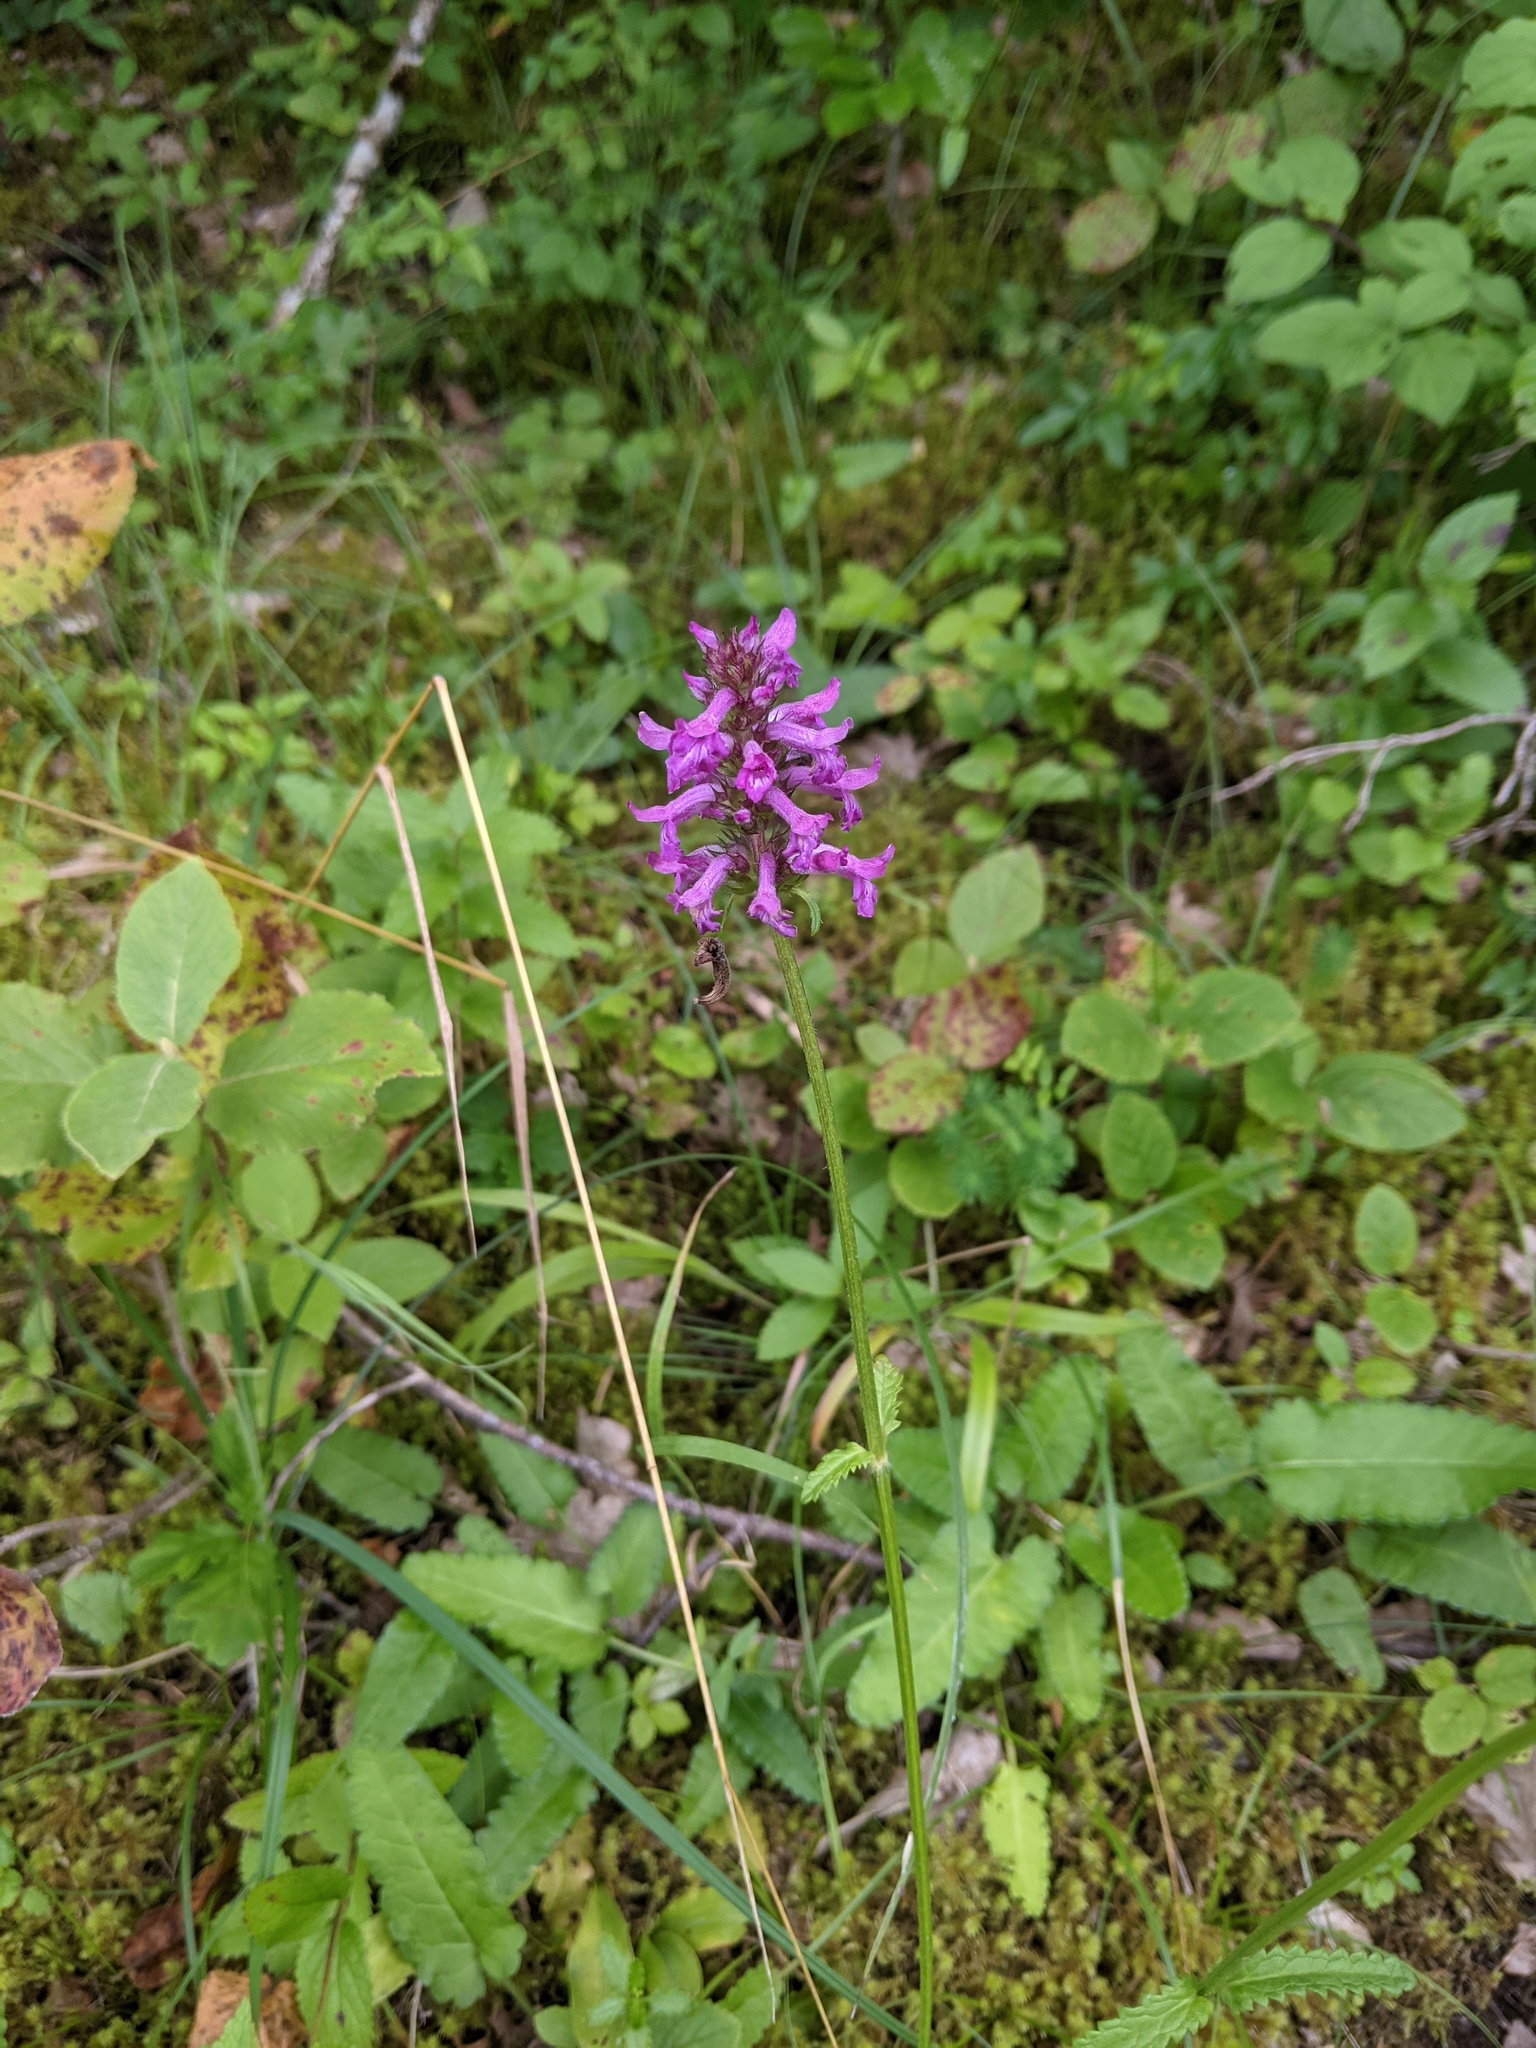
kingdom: Plantae
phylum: Tracheophyta
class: Magnoliopsida
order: Lamiales
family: Lamiaceae
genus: Betonica
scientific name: Betonica officinalis
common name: Bishop's-wort
